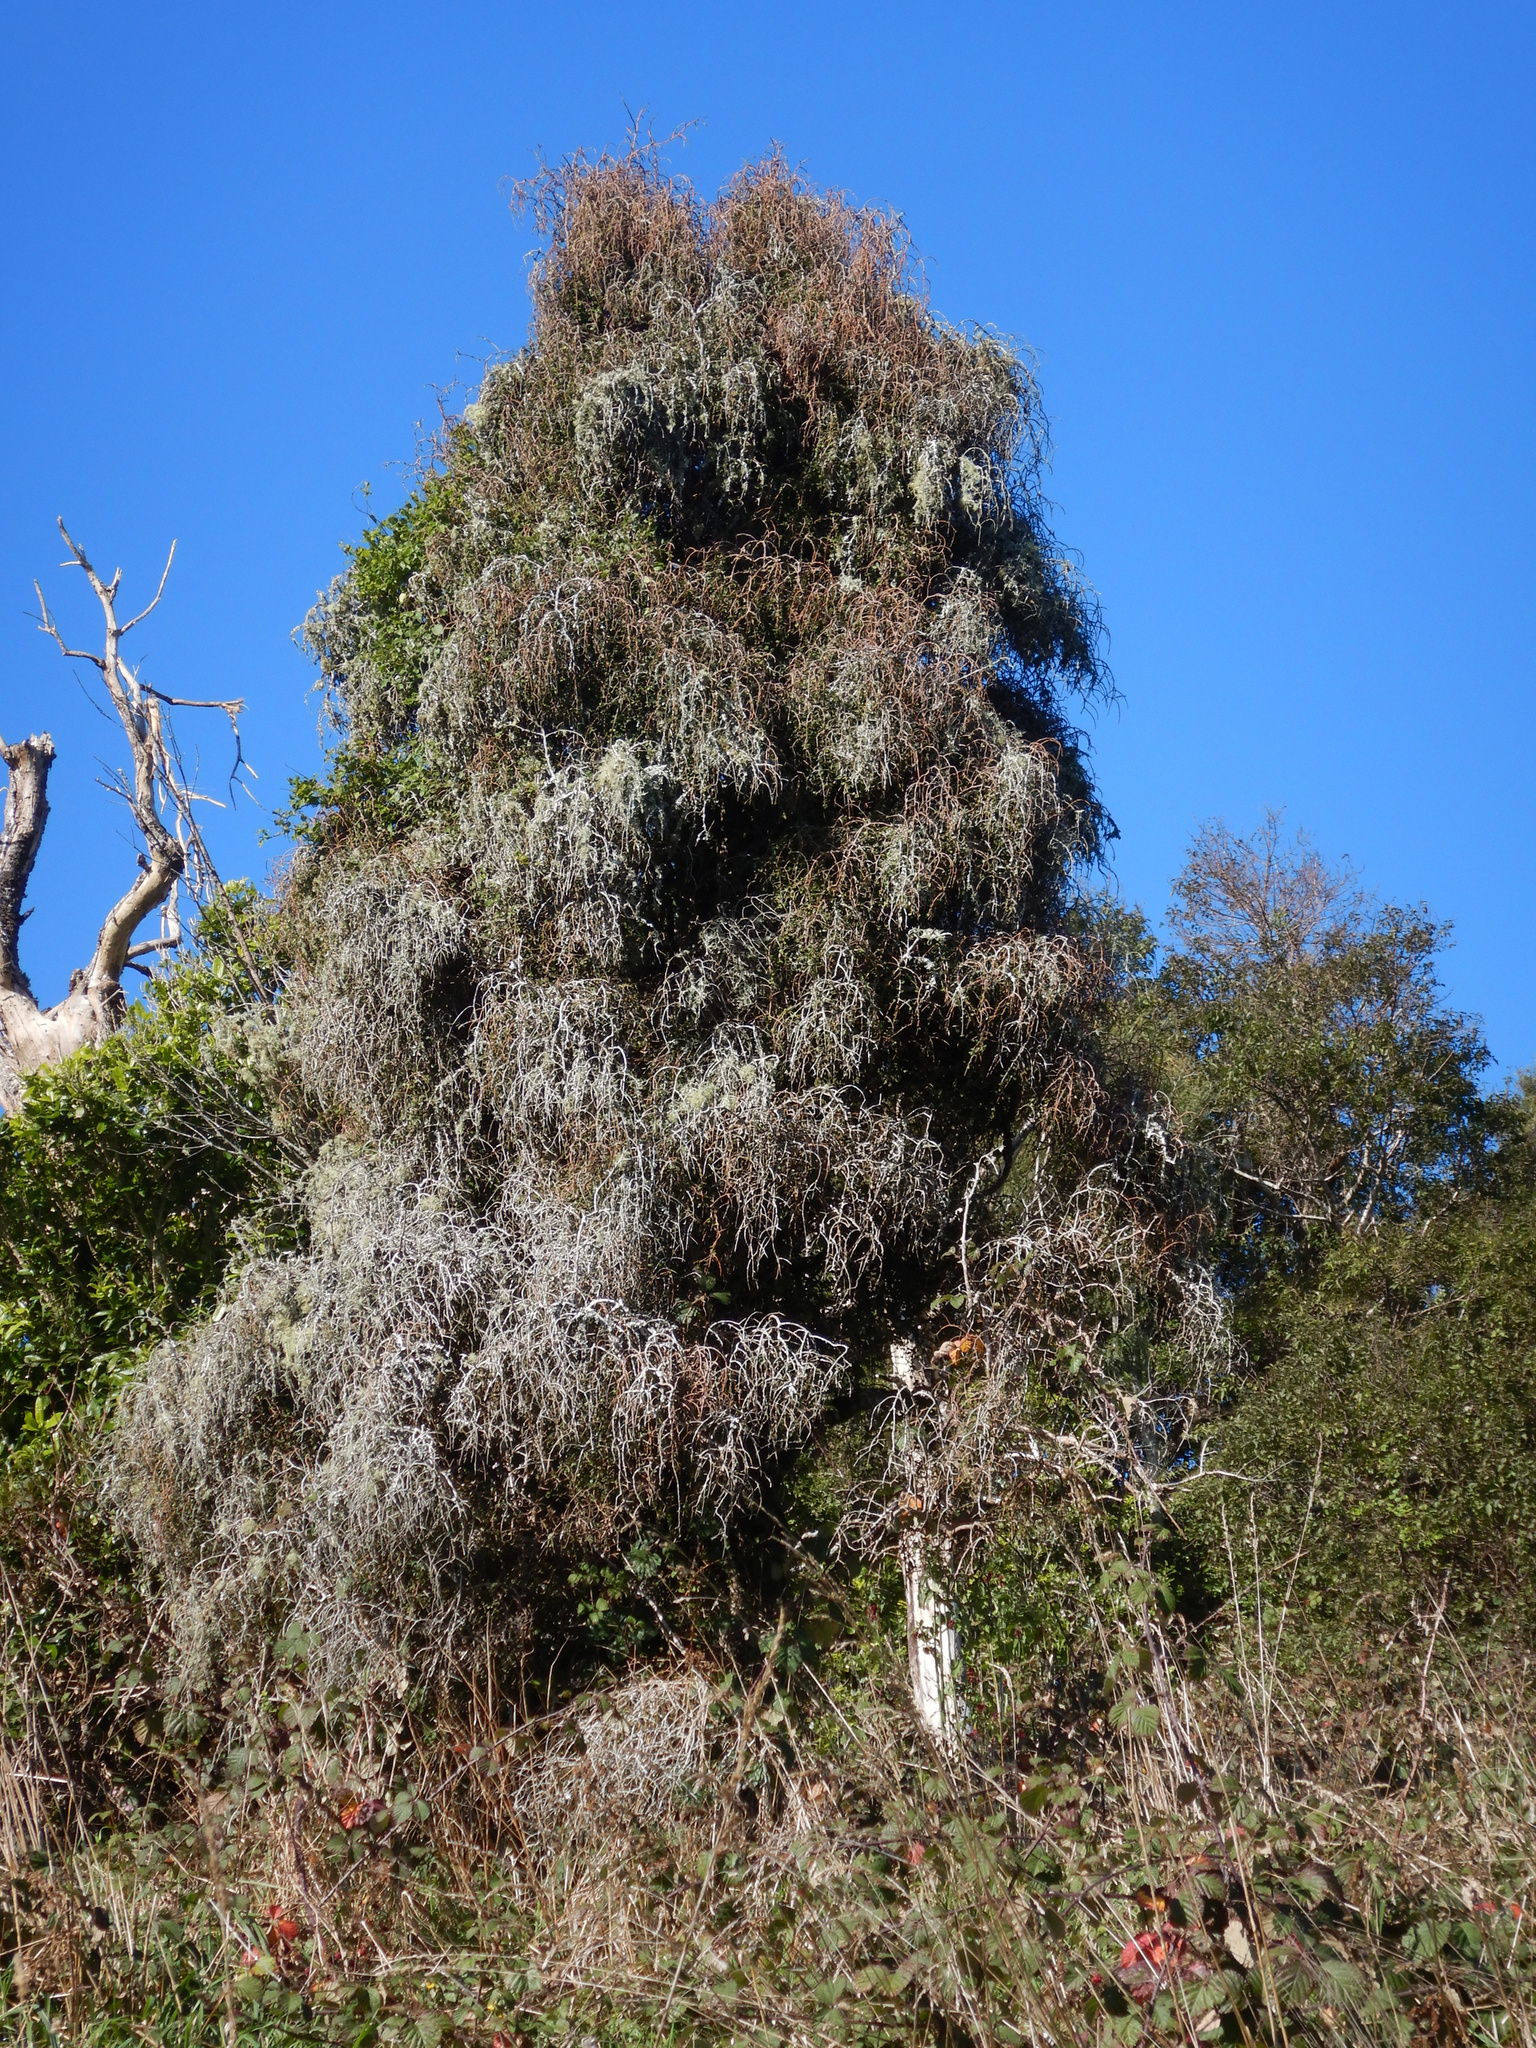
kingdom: Plantae
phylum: Tracheophyta
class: Magnoliopsida
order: Ericales
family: Primulaceae
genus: Myrsine
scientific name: Myrsine divaricata
